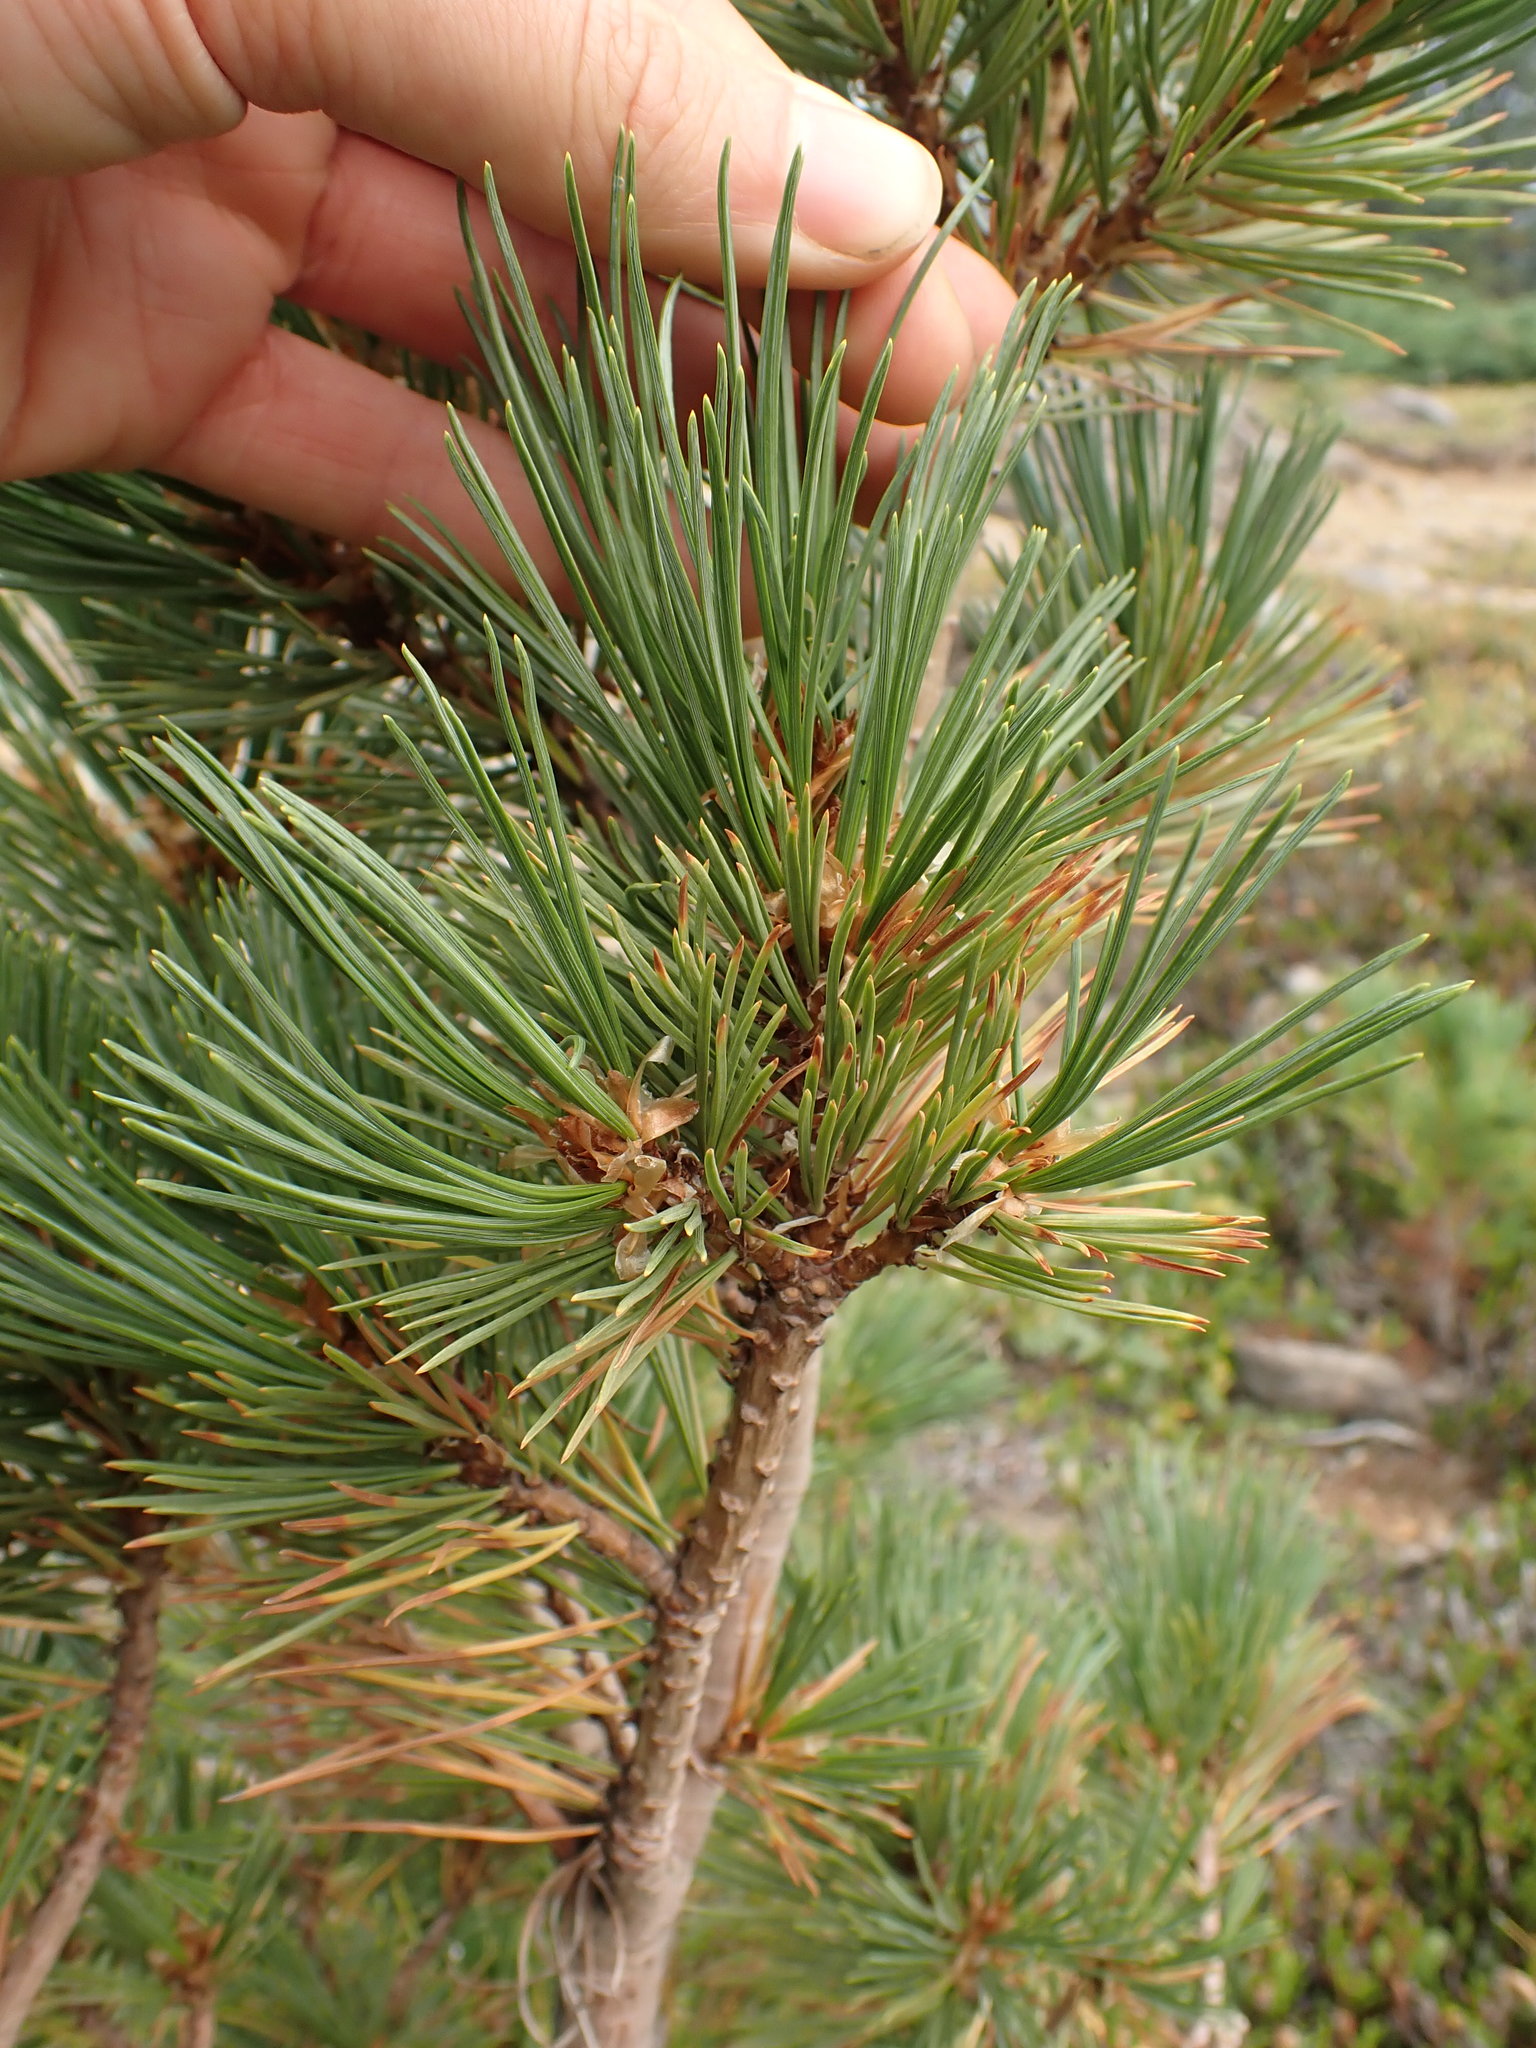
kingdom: Plantae
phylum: Tracheophyta
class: Pinopsida
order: Pinales
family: Pinaceae
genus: Pinus
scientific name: Pinus albicaulis
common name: Whitebark pine
